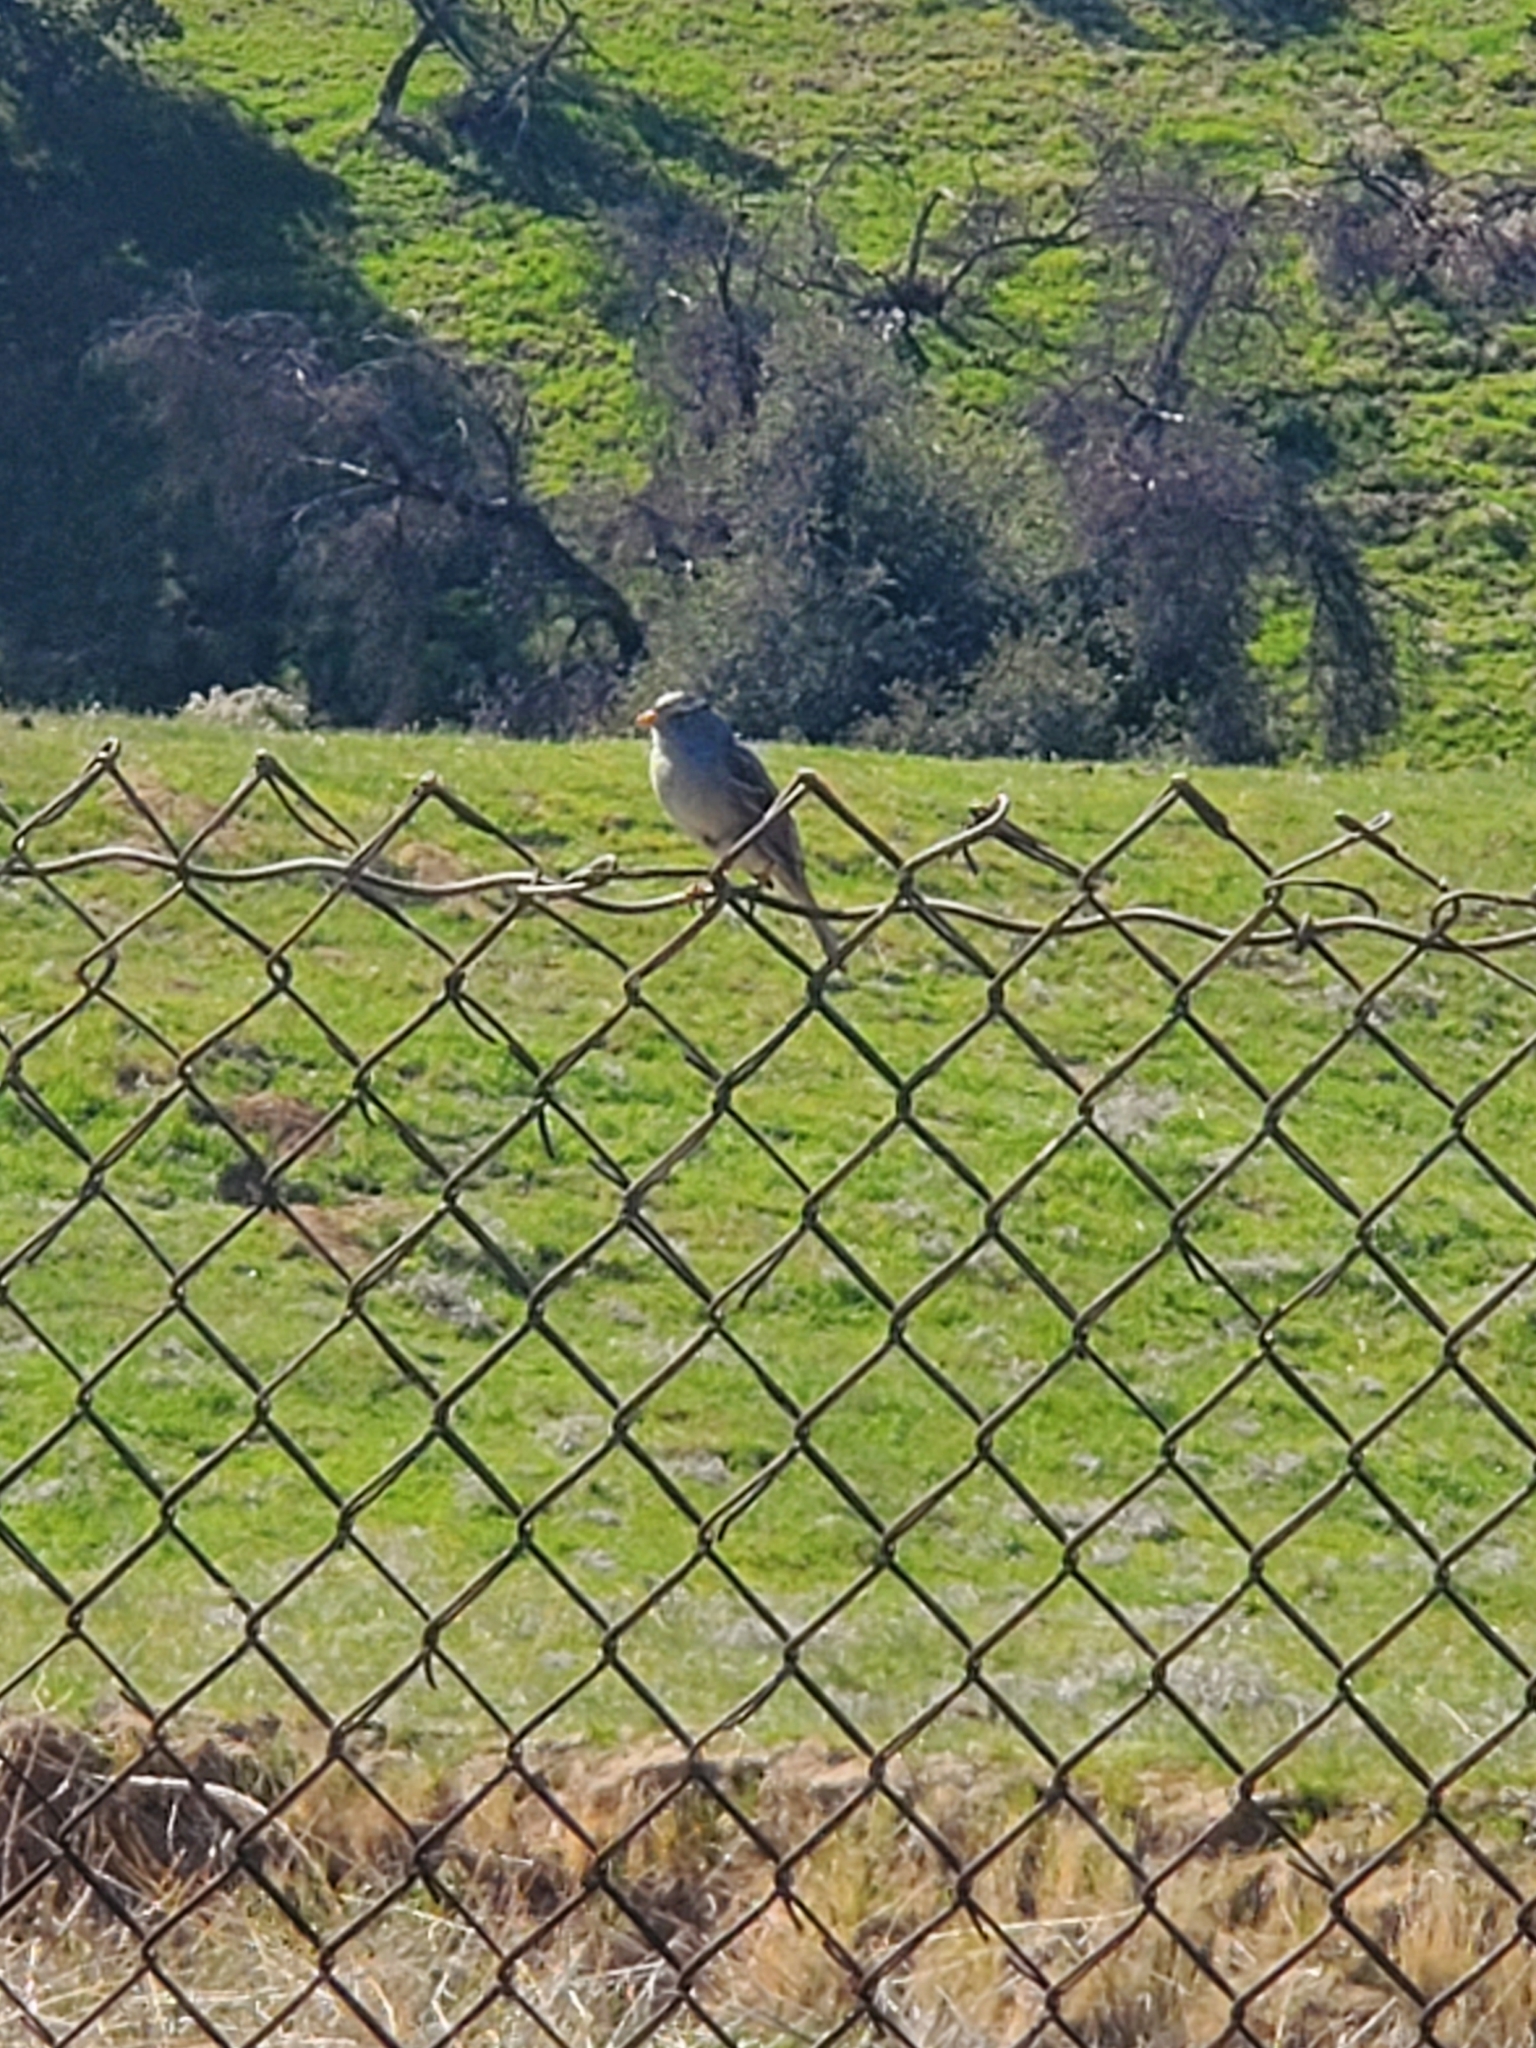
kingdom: Animalia
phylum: Chordata
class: Aves
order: Passeriformes
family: Passerellidae
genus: Zonotrichia
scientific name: Zonotrichia leucophrys
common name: White-crowned sparrow
